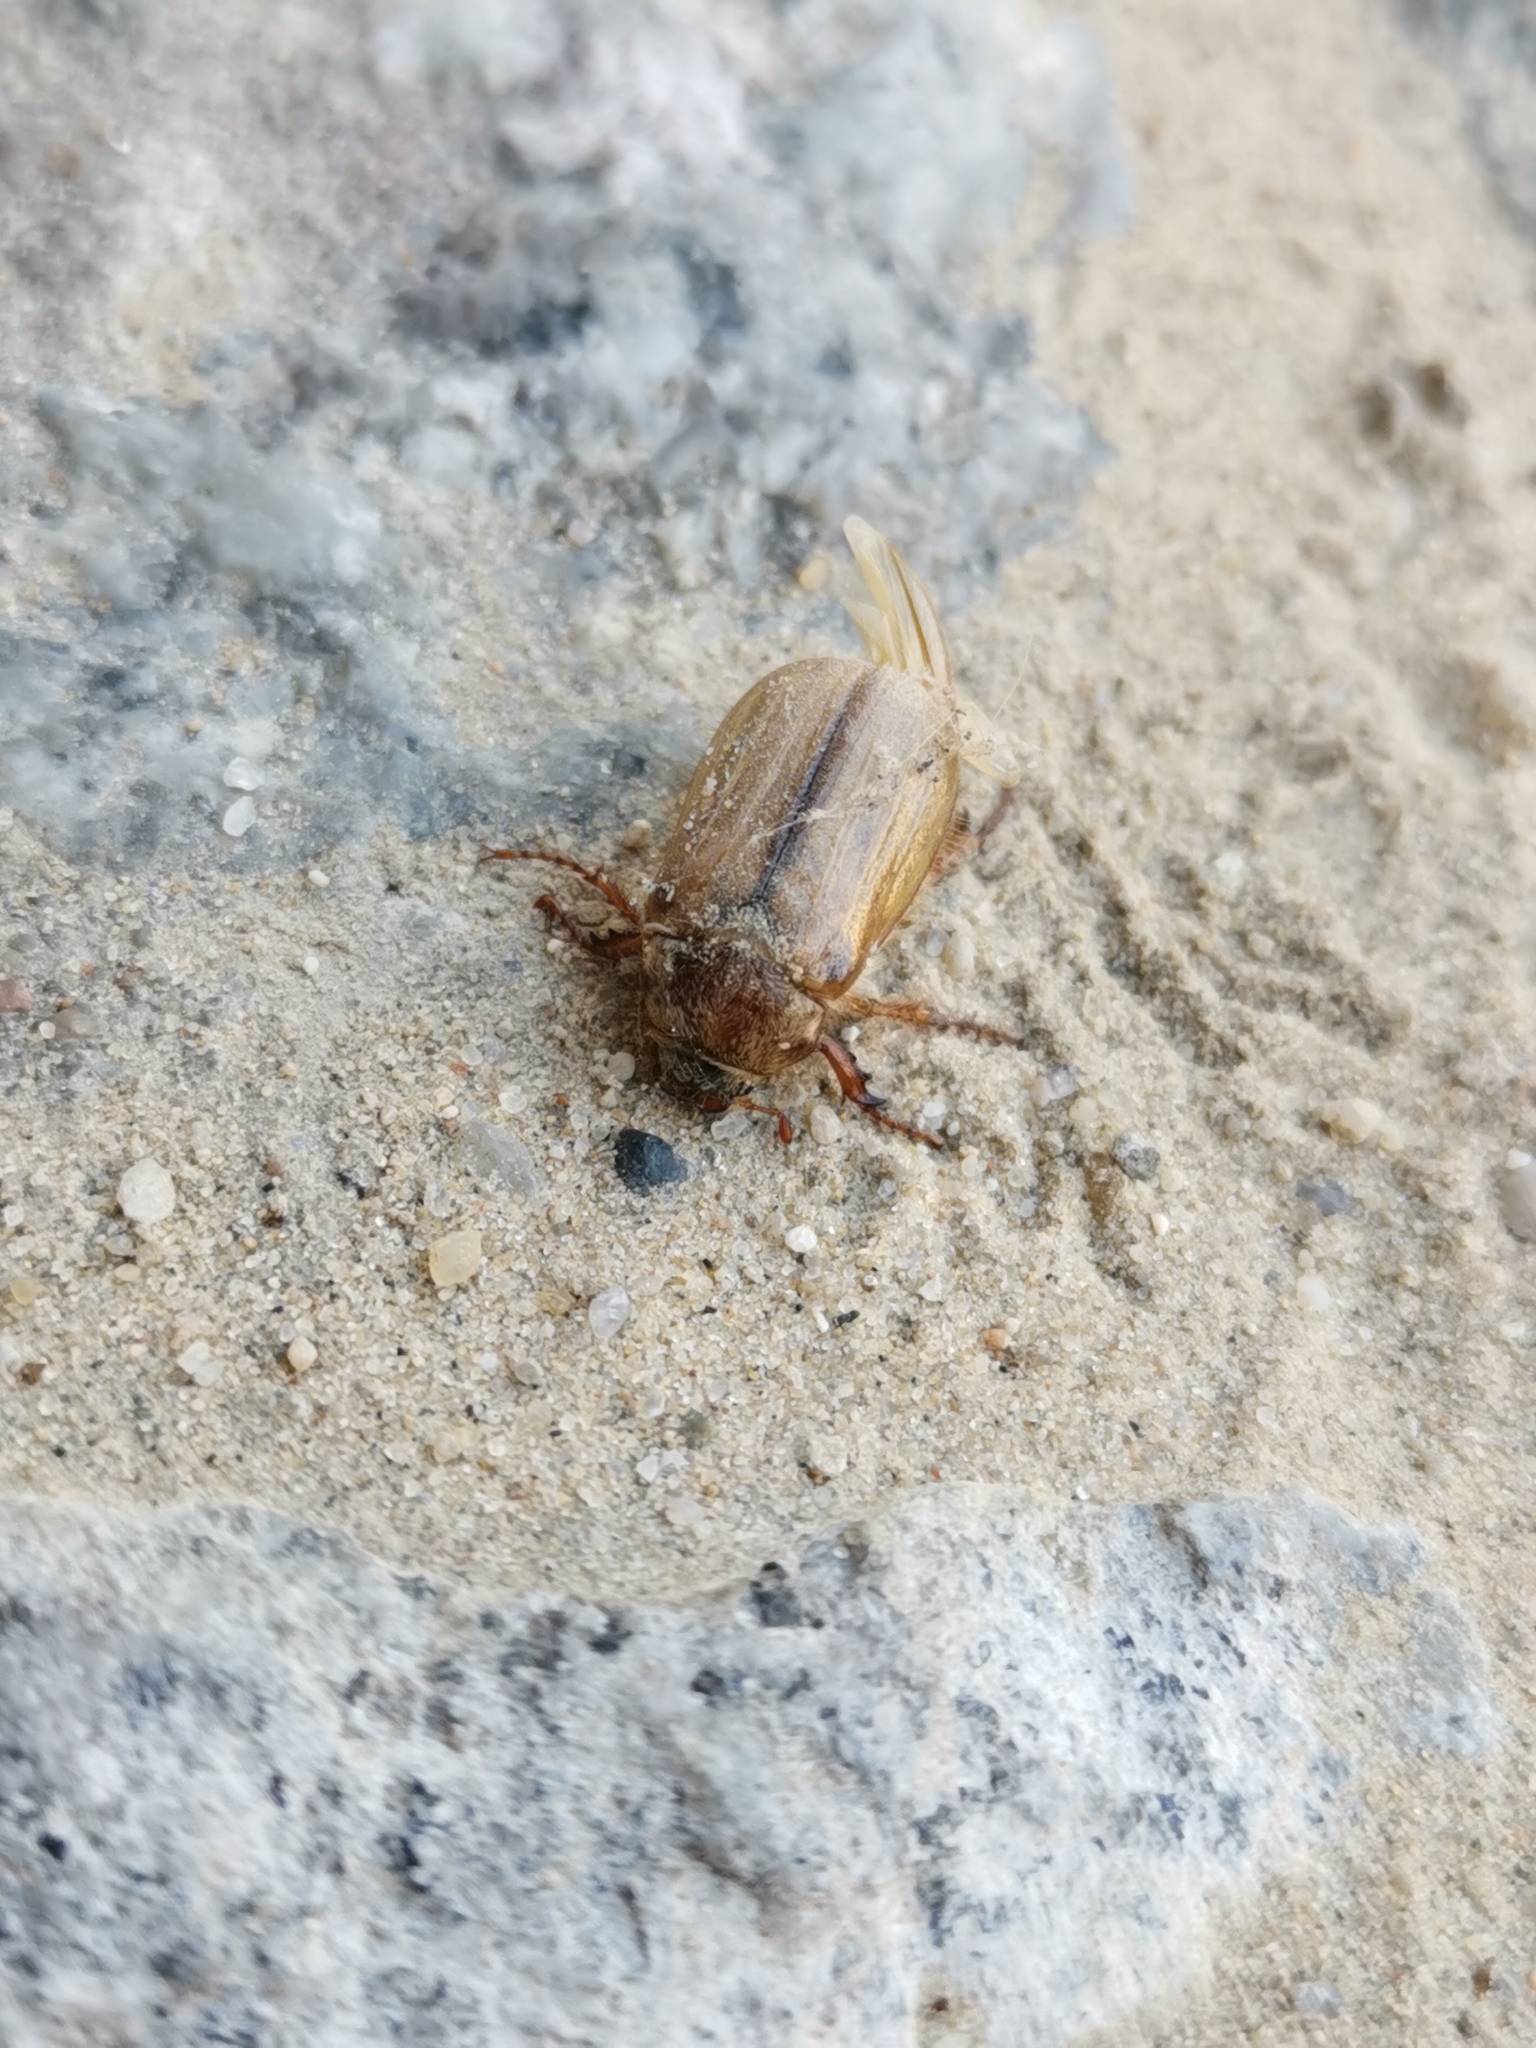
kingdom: Animalia
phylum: Arthropoda
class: Insecta
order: Coleoptera
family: Scarabaeidae
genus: Amphimallon
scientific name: Amphimallon solstitiale
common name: Summer chafer
